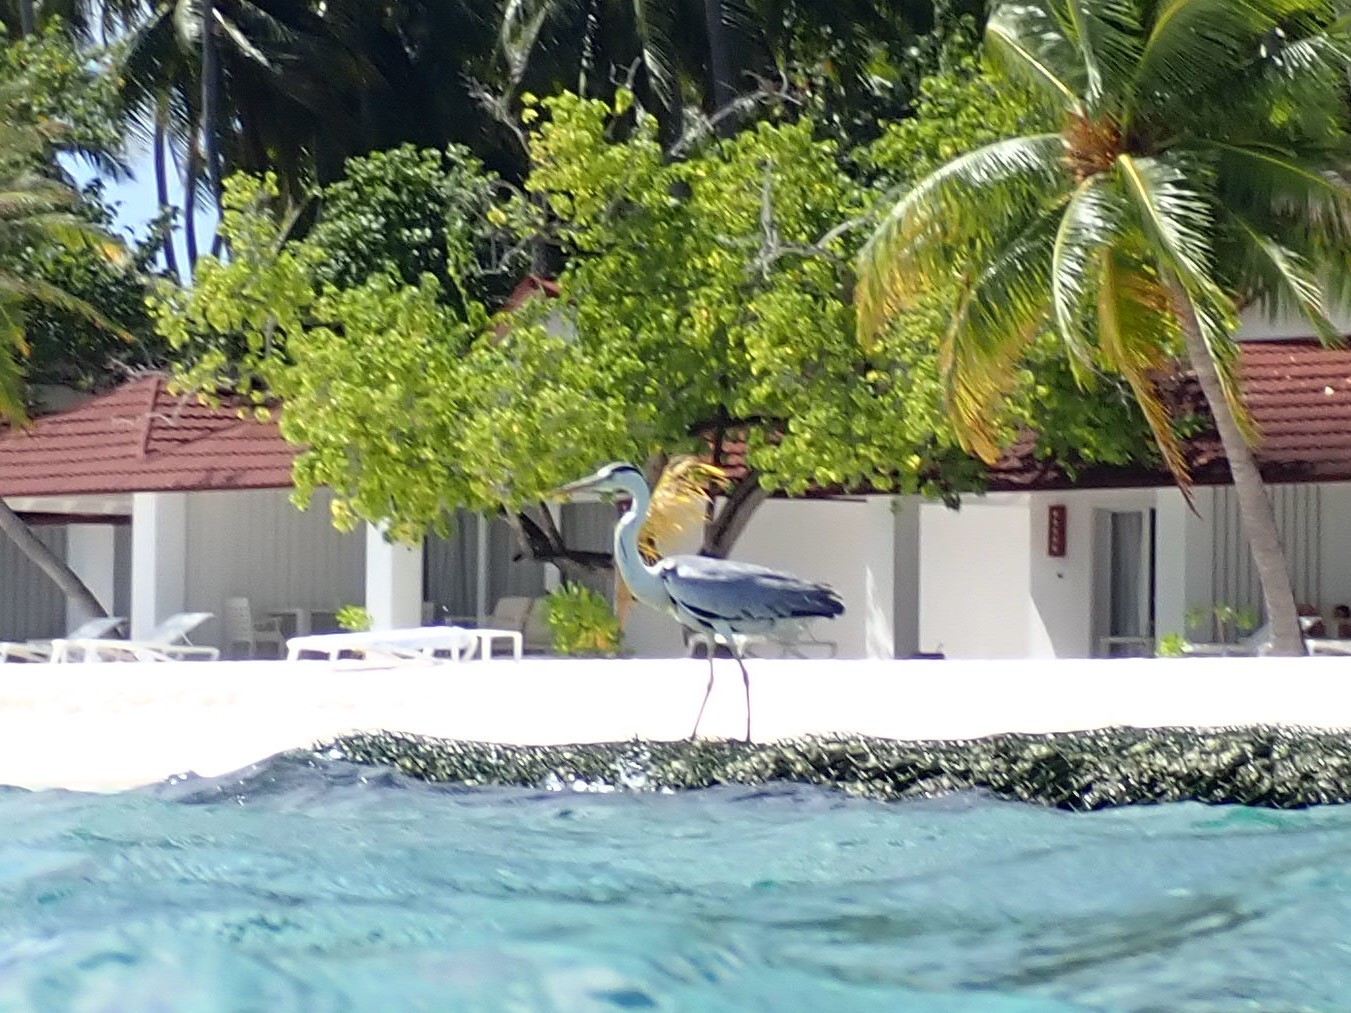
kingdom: Animalia
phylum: Chordata
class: Aves
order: Pelecaniformes
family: Ardeidae
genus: Ardea
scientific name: Ardea cinerea
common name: Grey heron
